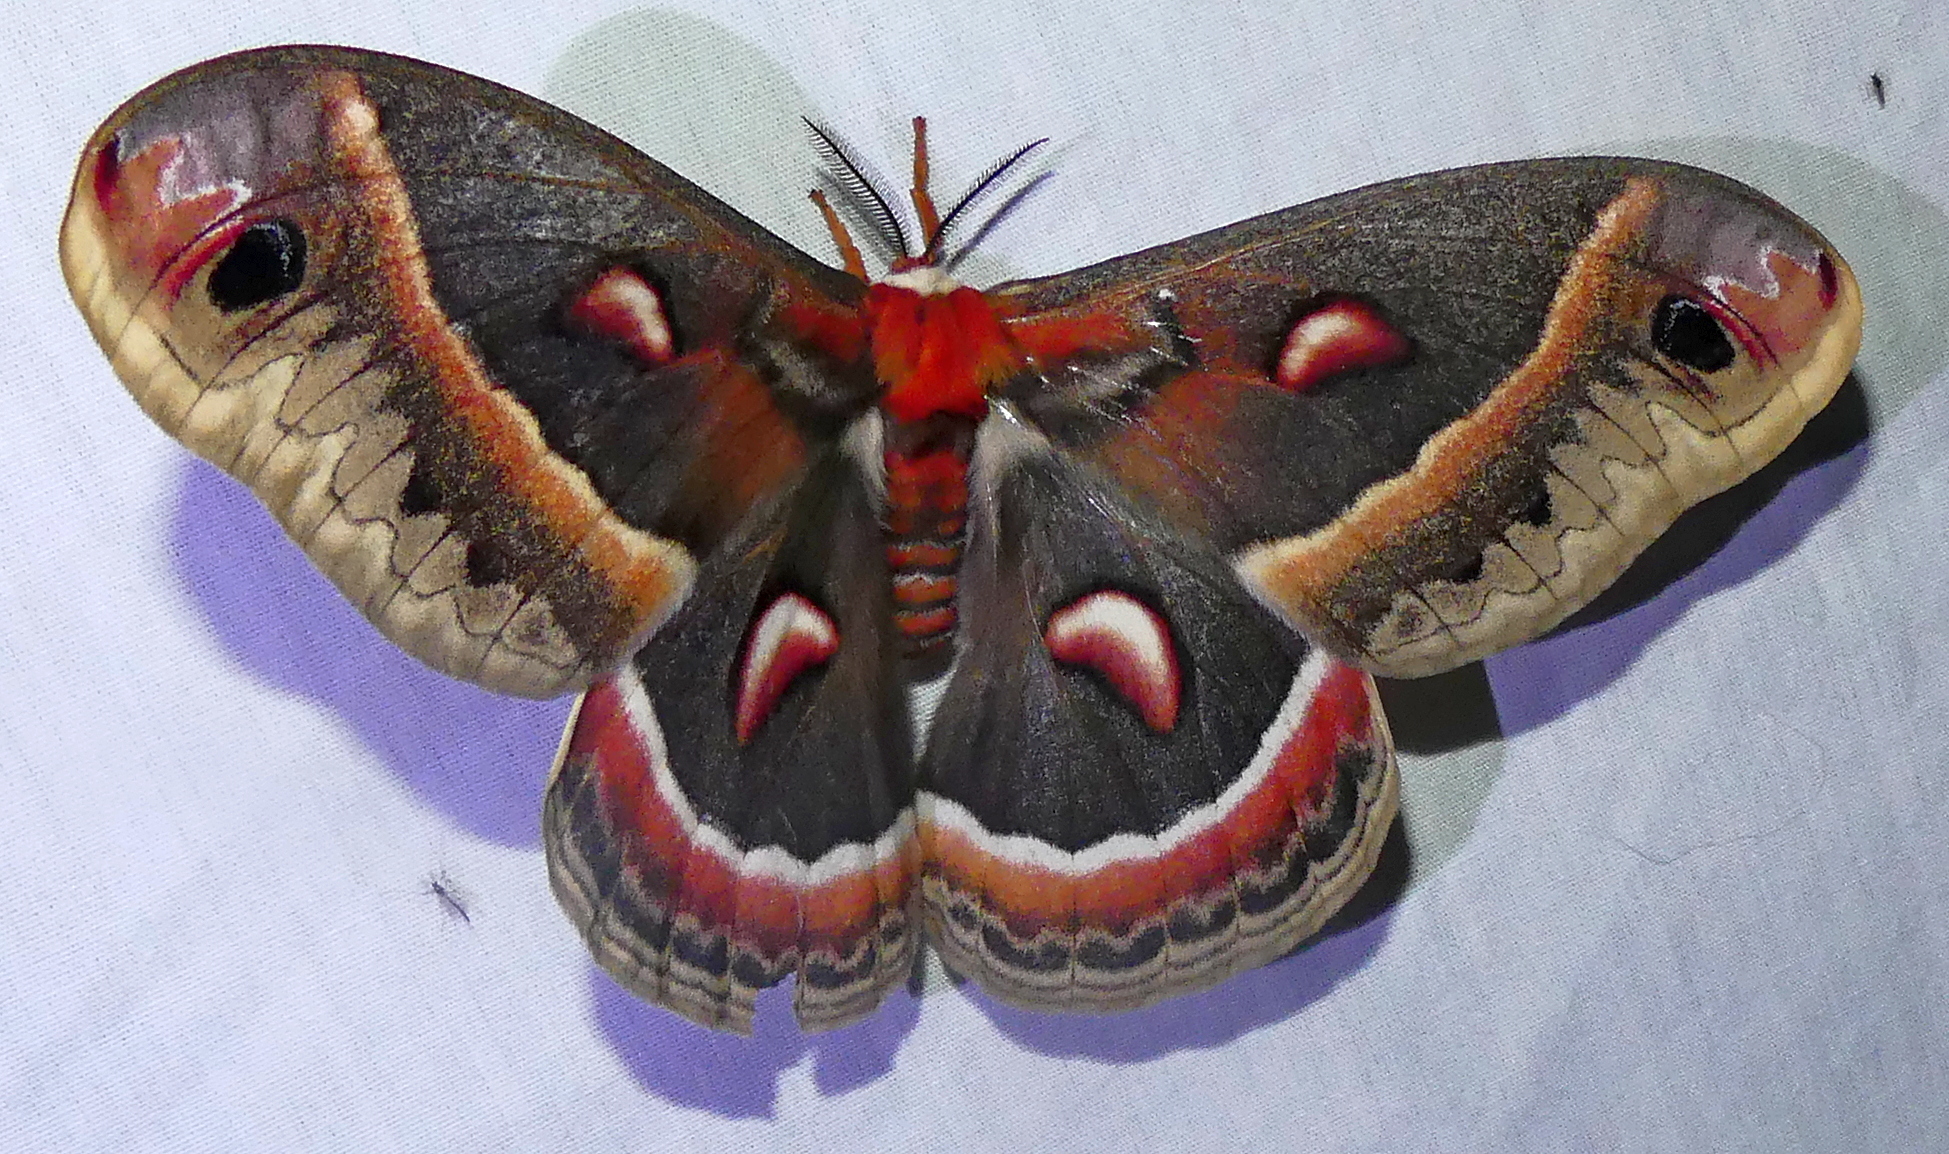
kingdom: Animalia
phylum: Arthropoda
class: Insecta
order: Lepidoptera
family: Saturniidae
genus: Hyalophora
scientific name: Hyalophora cecropia
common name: Cecropia silkmoth
